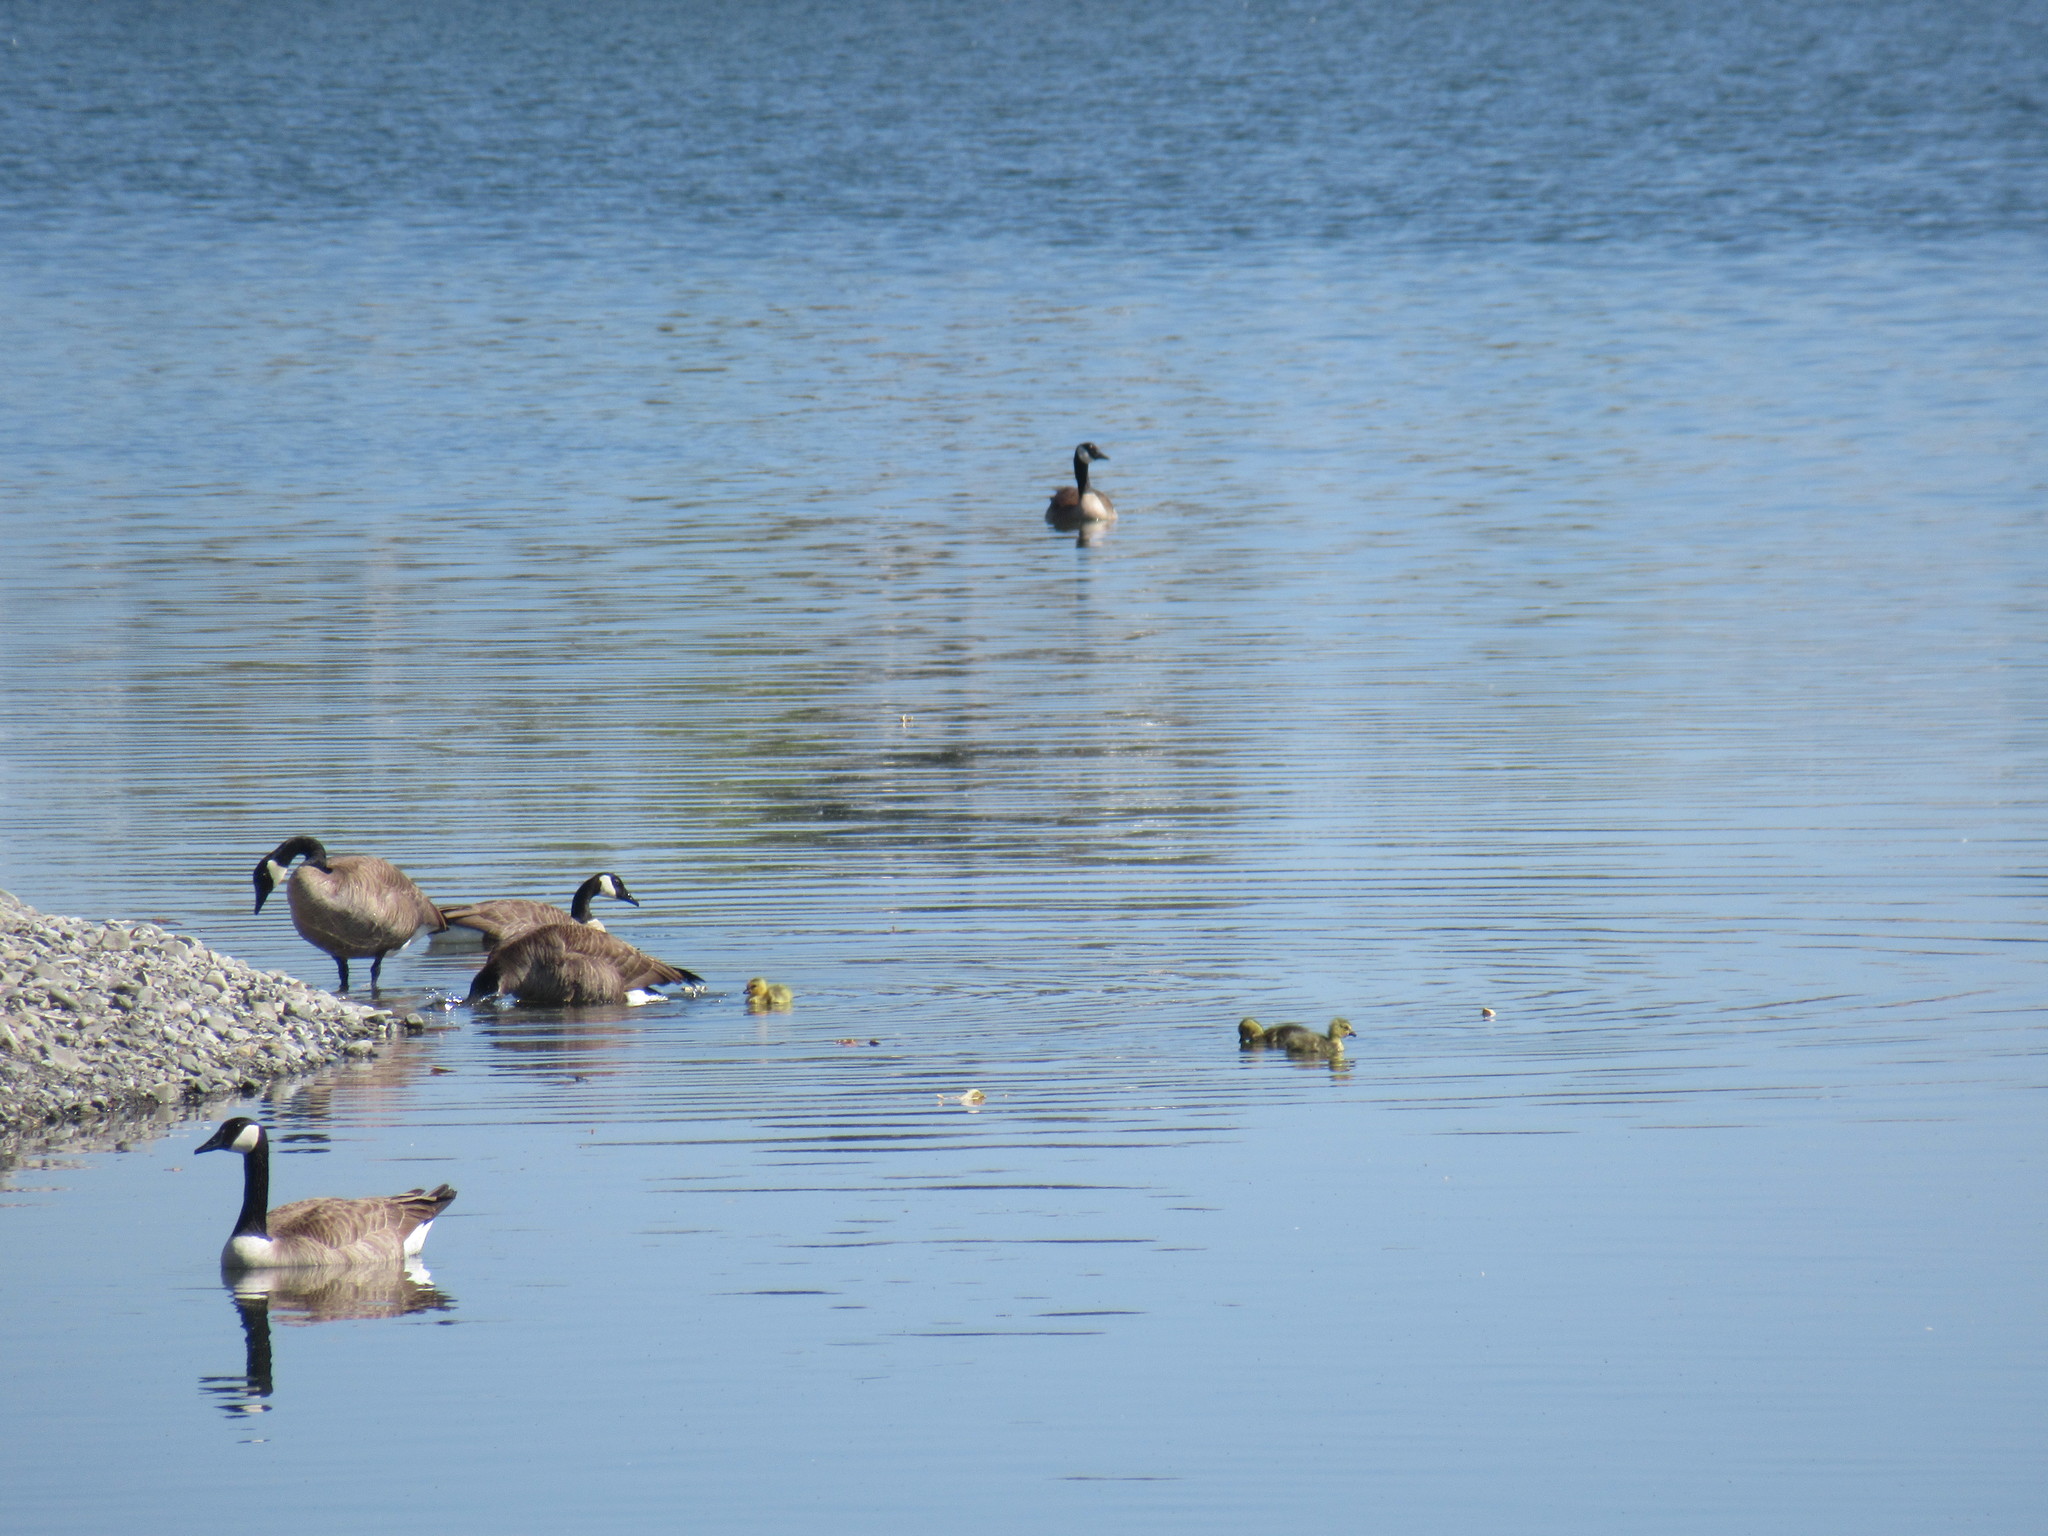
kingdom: Animalia
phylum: Chordata
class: Aves
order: Anseriformes
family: Anatidae
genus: Branta
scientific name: Branta canadensis
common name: Canada goose
